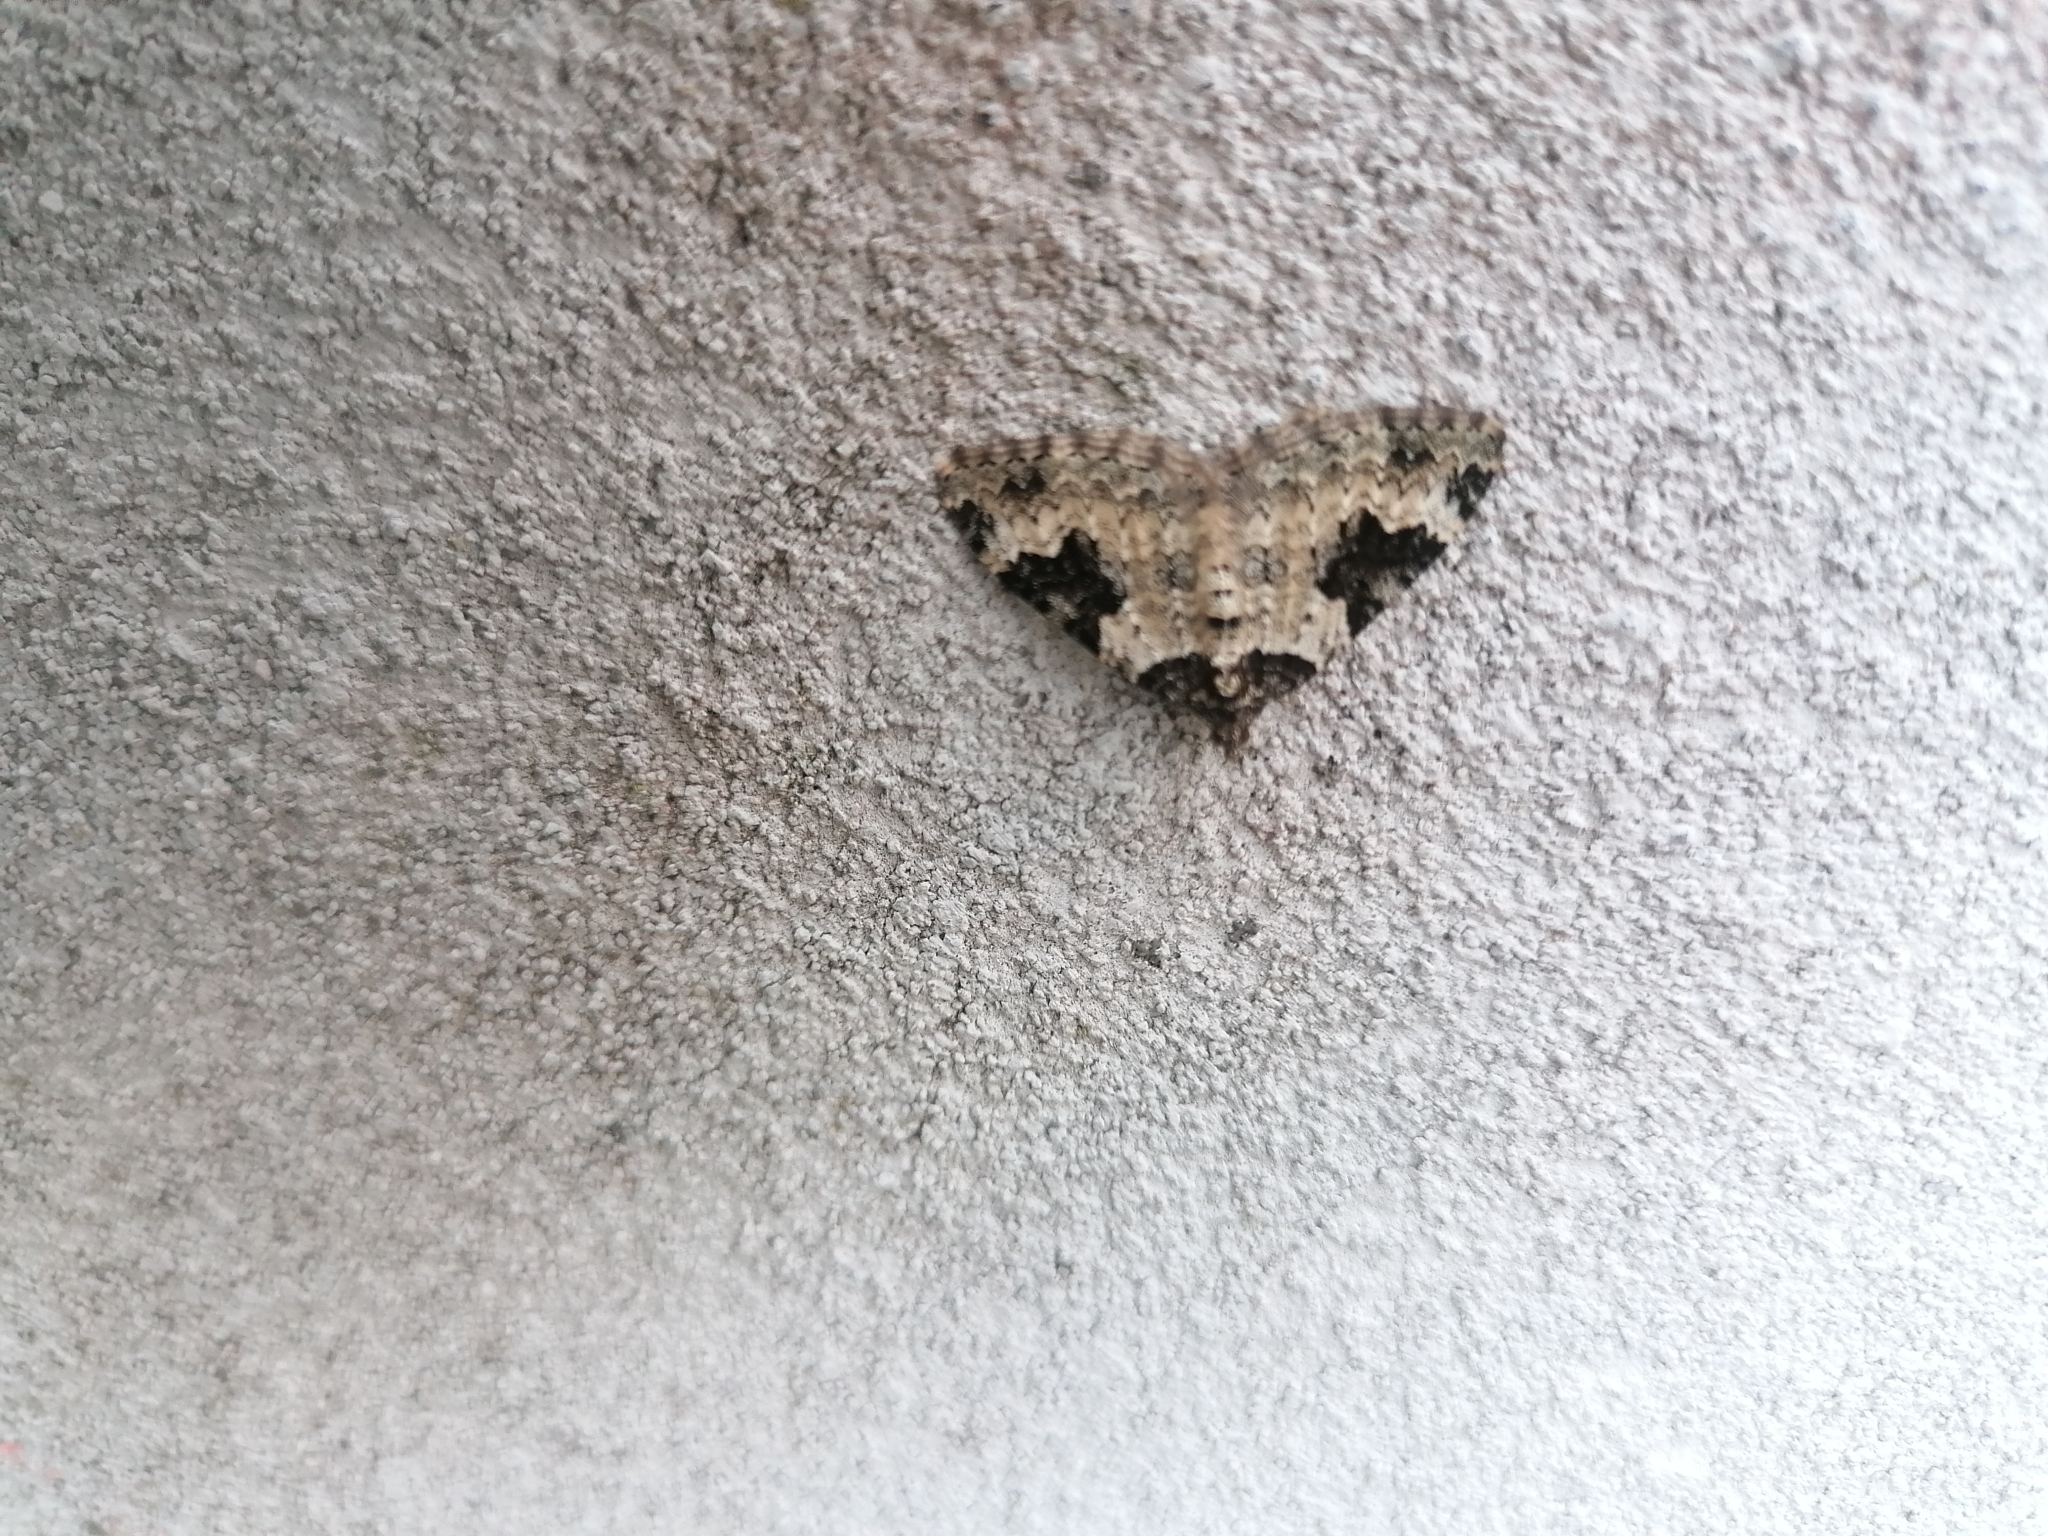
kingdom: Animalia
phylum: Arthropoda
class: Insecta
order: Lepidoptera
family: Geometridae
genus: Xanthorhoe
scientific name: Xanthorhoe fluctuata
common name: Garden carpet
